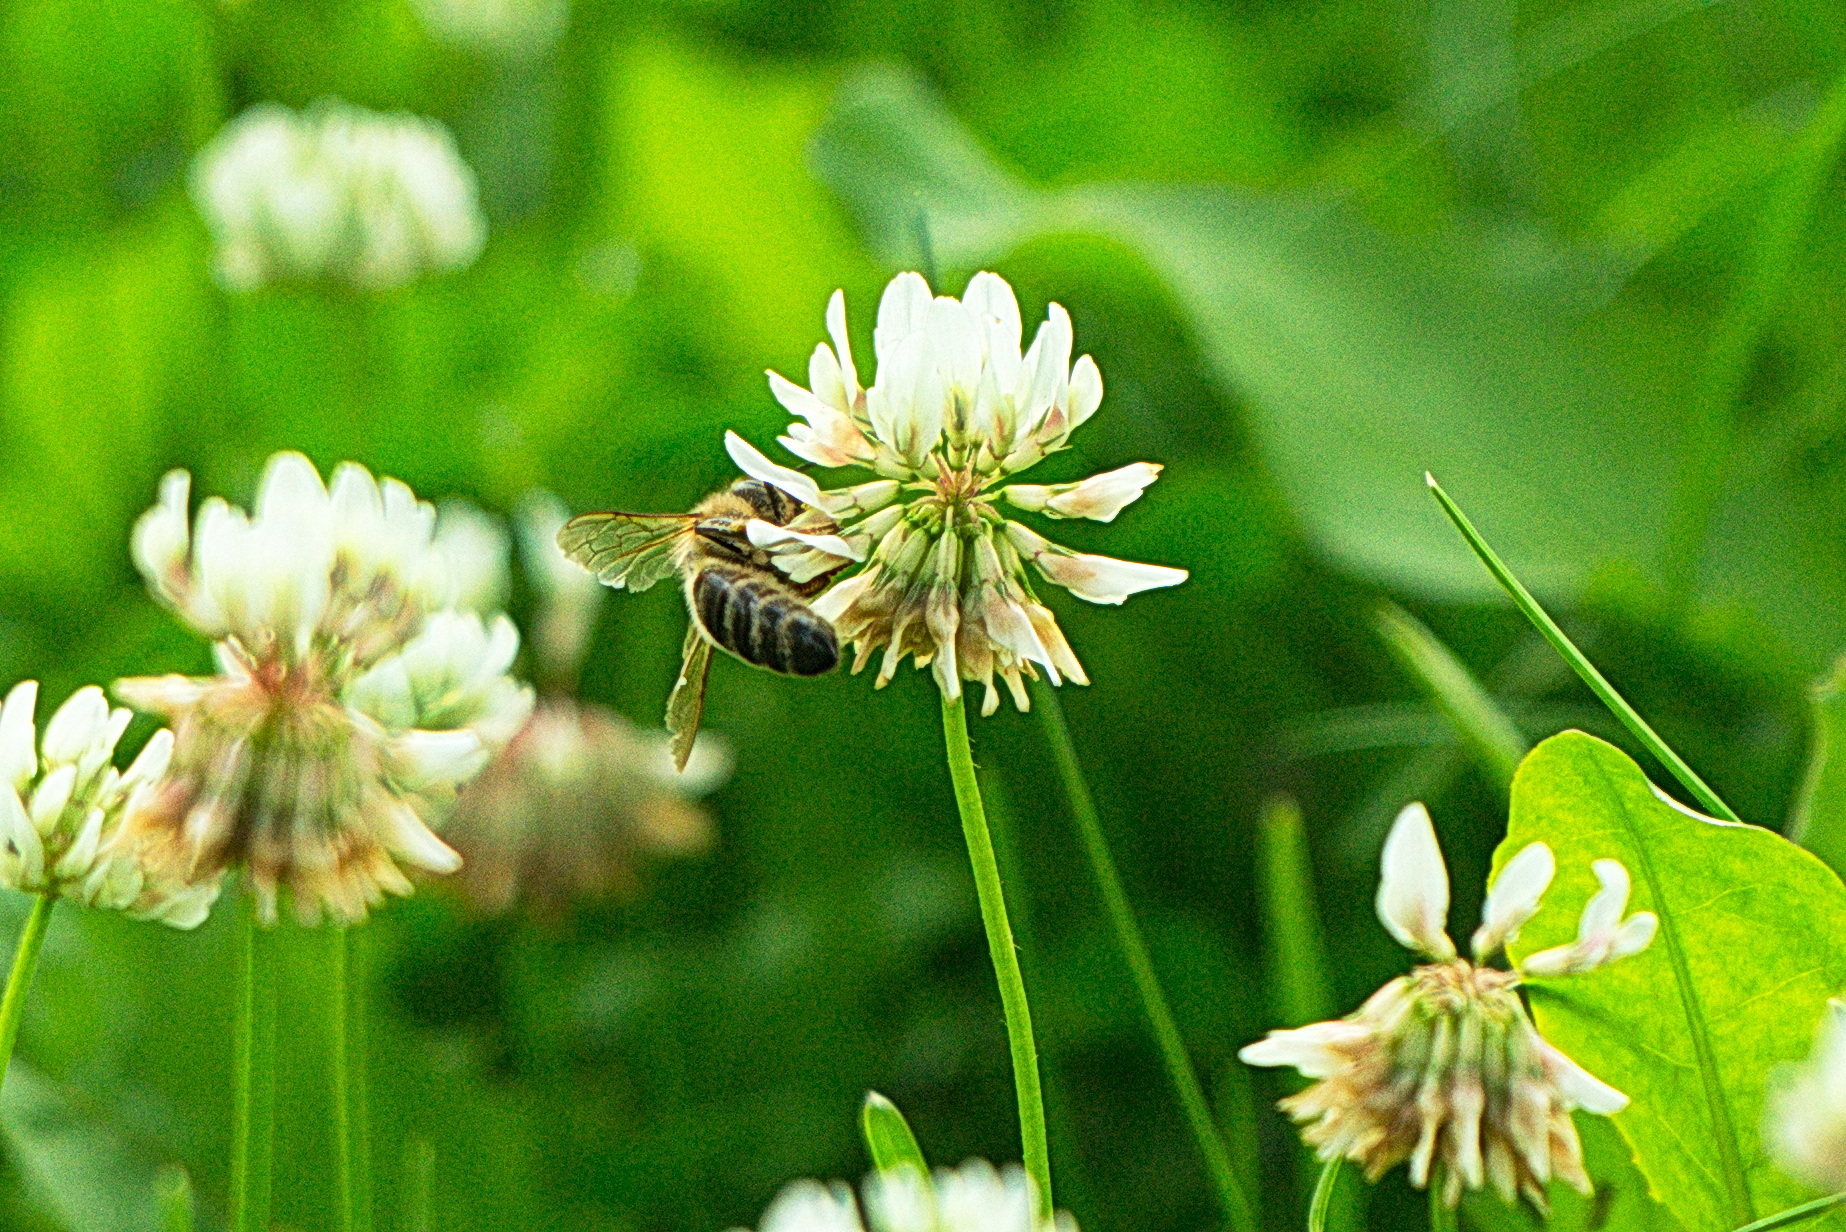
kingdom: Animalia
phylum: Arthropoda
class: Insecta
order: Hymenoptera
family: Apidae
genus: Apis
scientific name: Apis mellifera
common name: Honey bee
